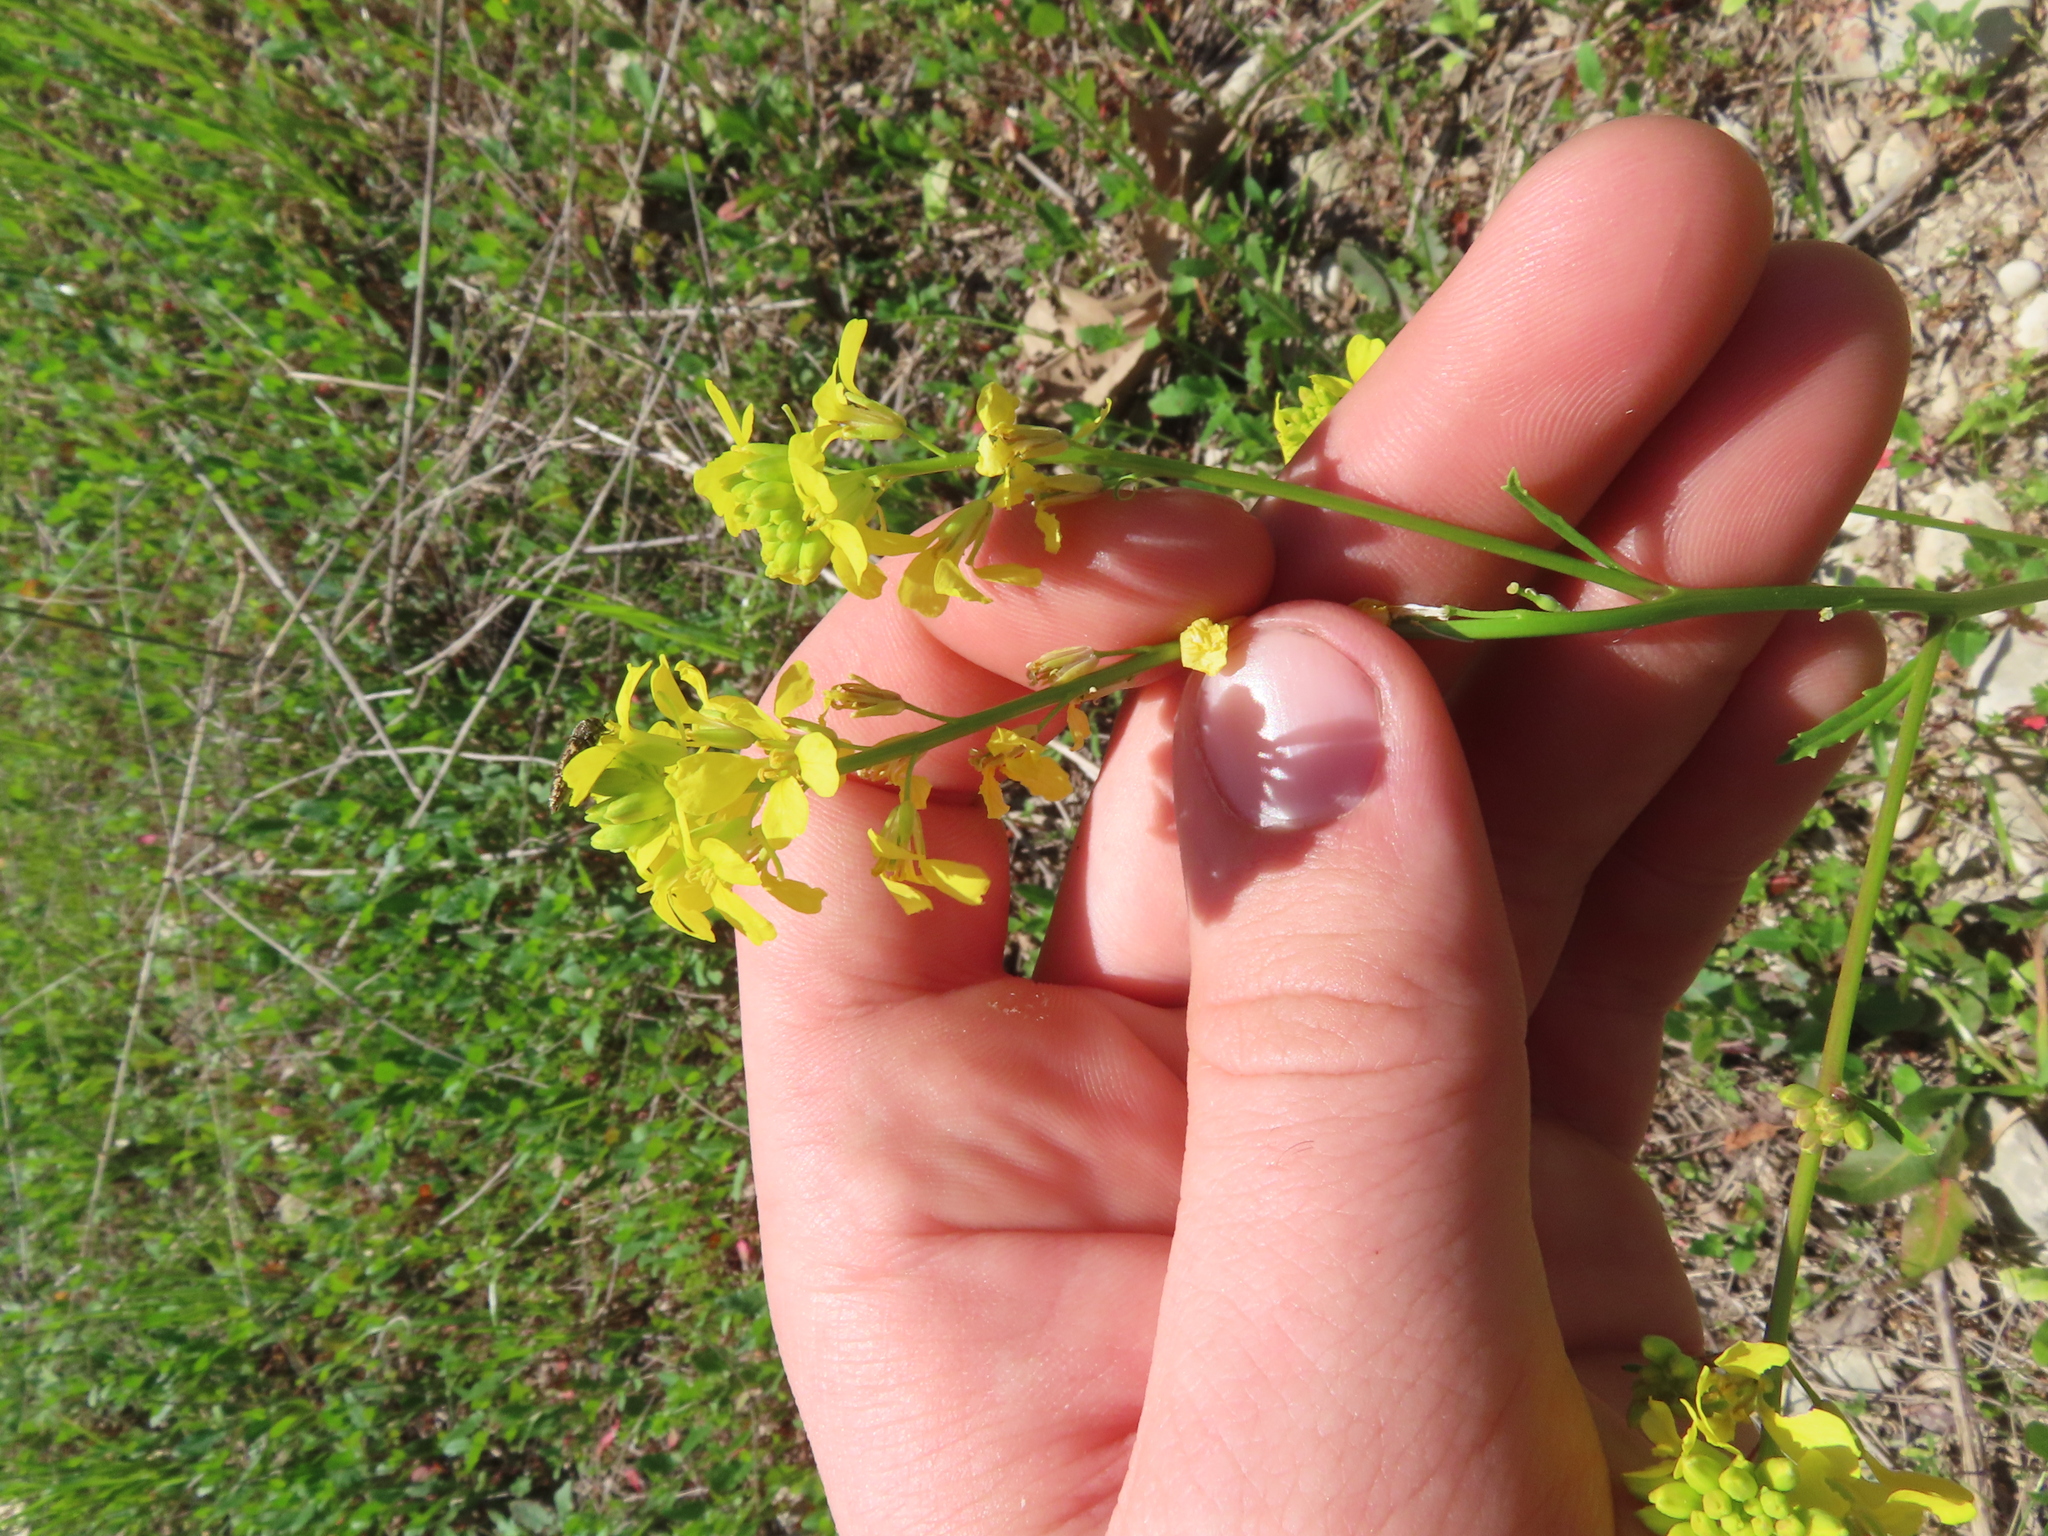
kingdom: Plantae
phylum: Tracheophyta
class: Magnoliopsida
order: Brassicales
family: Brassicaceae
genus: Rapistrum
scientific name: Rapistrum rugosum
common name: Annual bastardcabbage
